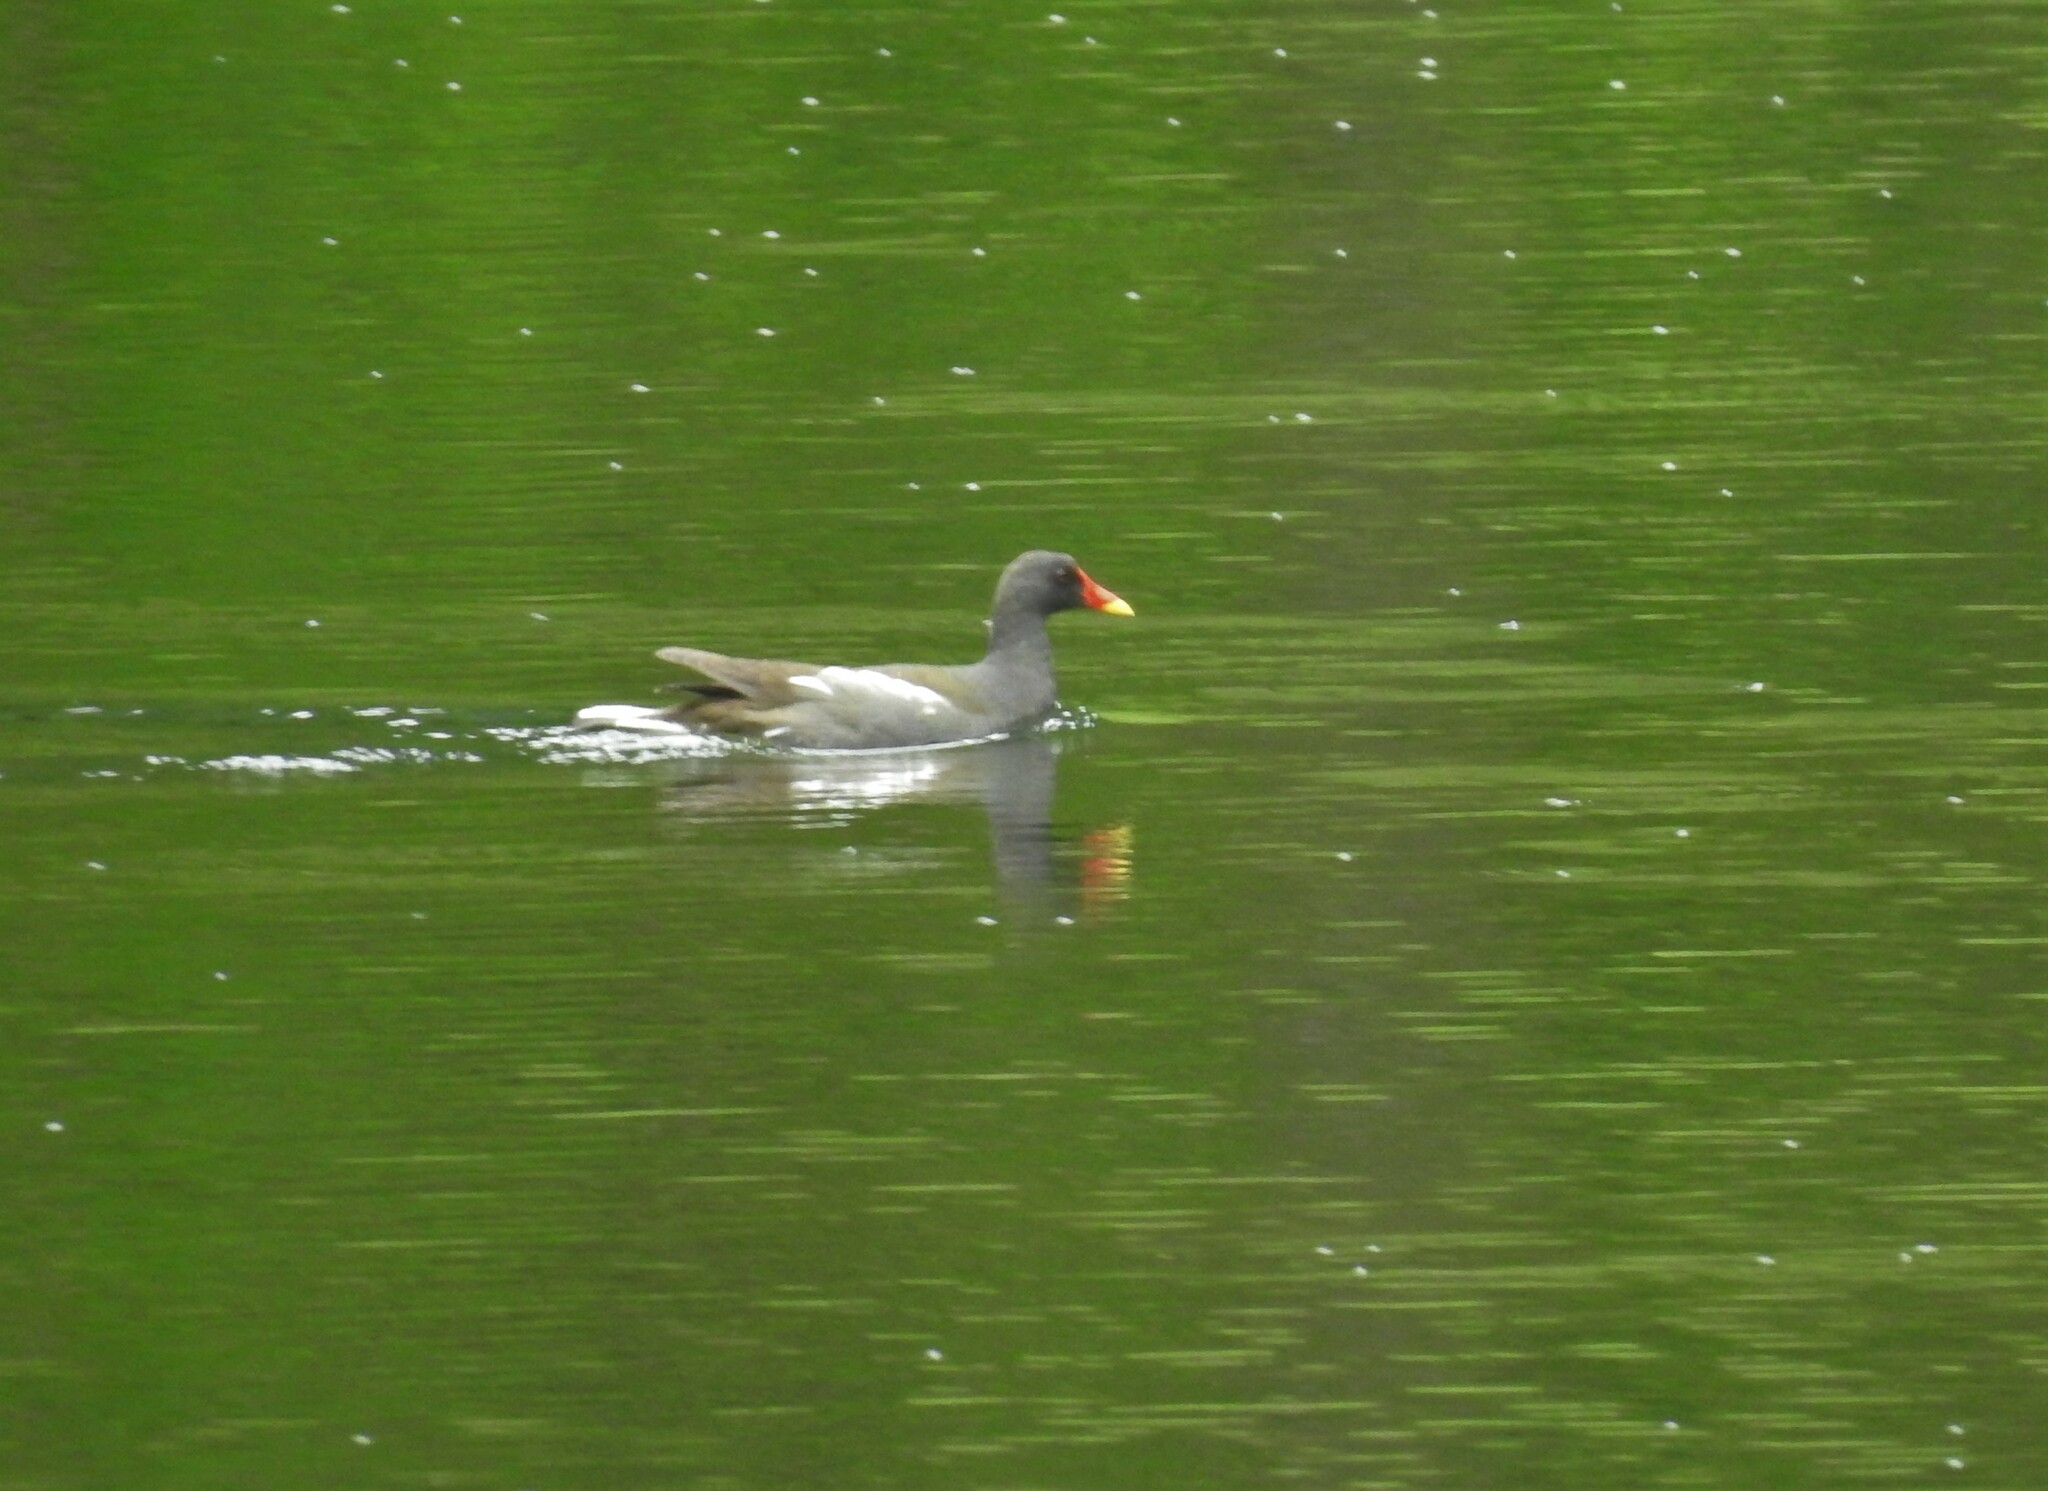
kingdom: Animalia
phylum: Chordata
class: Aves
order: Gruiformes
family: Rallidae
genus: Gallinula
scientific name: Gallinula chloropus
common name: Common moorhen
